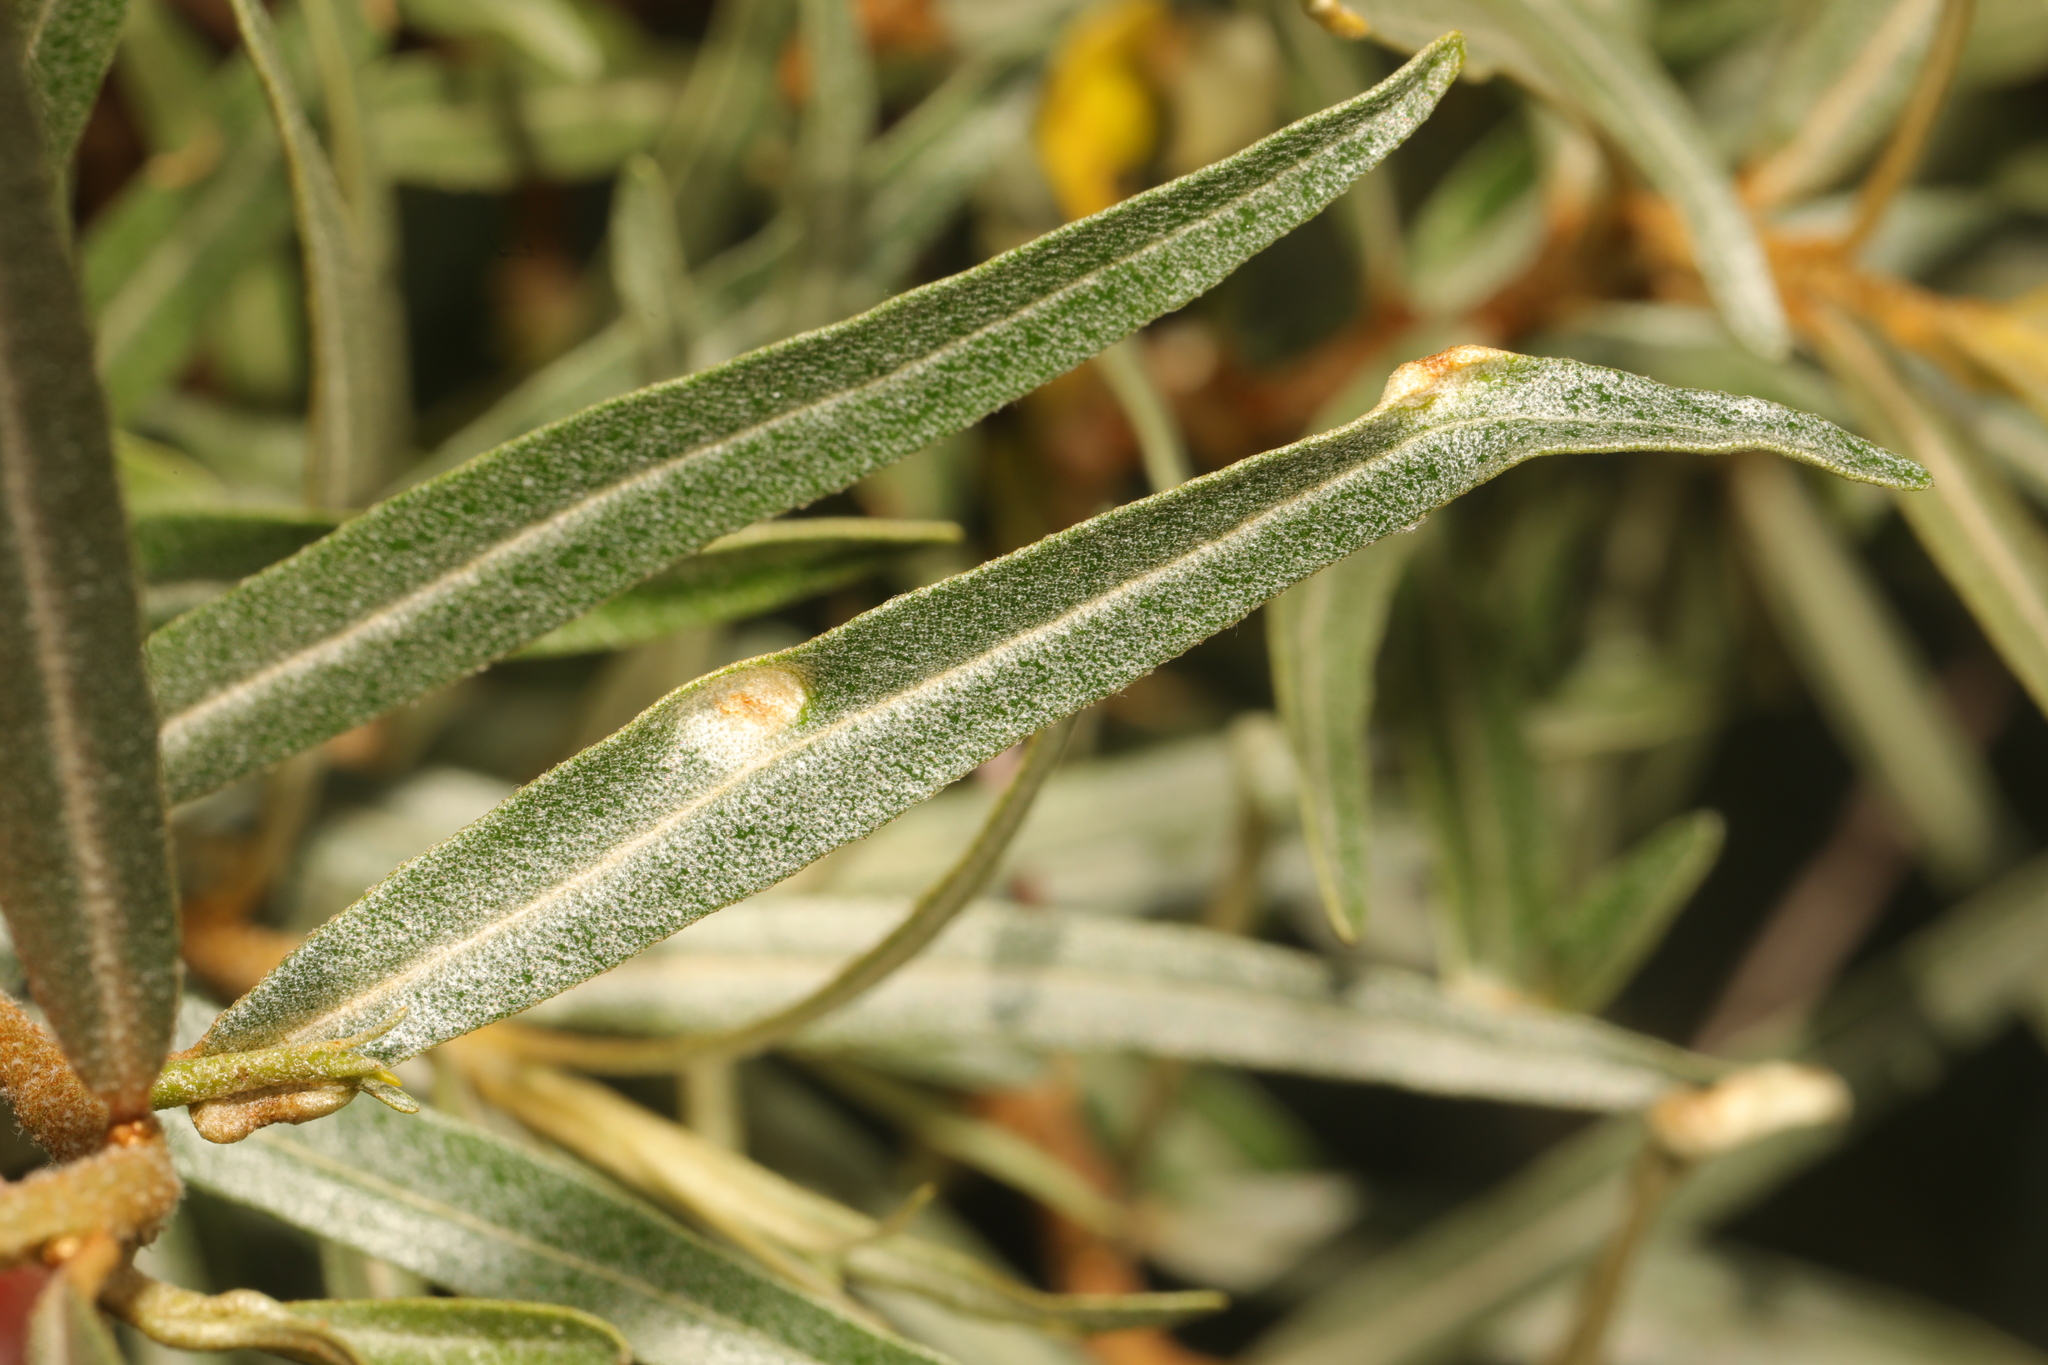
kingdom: Animalia
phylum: Arthropoda
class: Arachnida
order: Trombidiformes
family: Eriophyidae
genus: Aceria
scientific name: Aceria hippophaena
